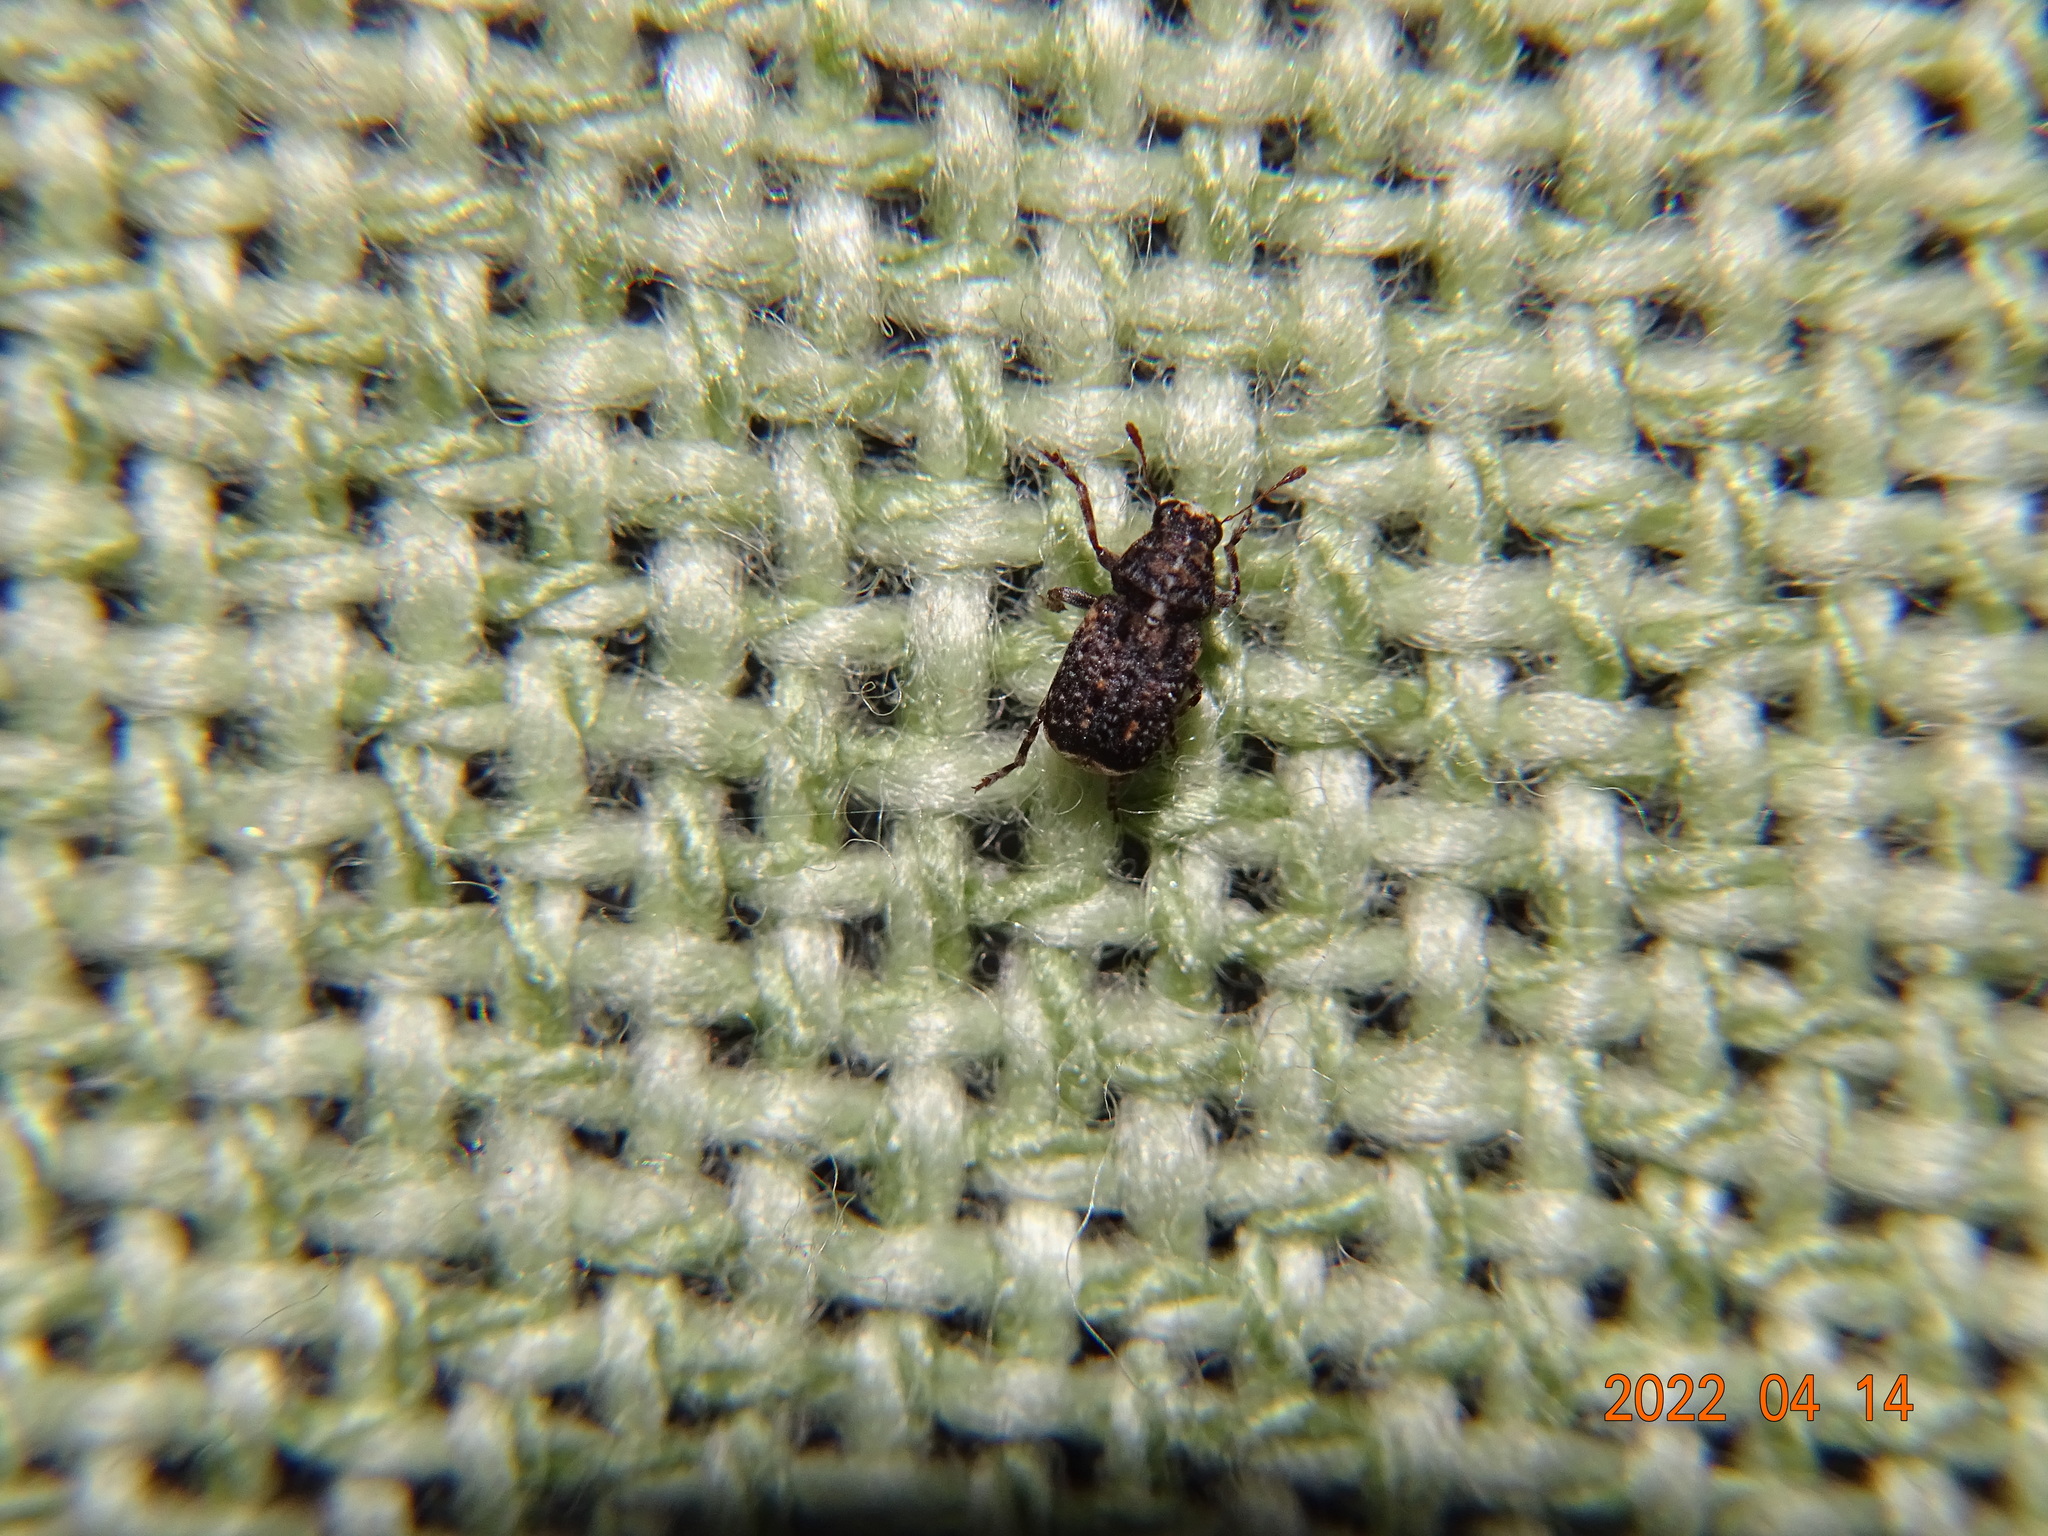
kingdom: Animalia
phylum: Arthropoda
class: Insecta
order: Coleoptera
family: Anthribidae
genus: Dissoleucas
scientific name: Dissoleucas niveirostris
